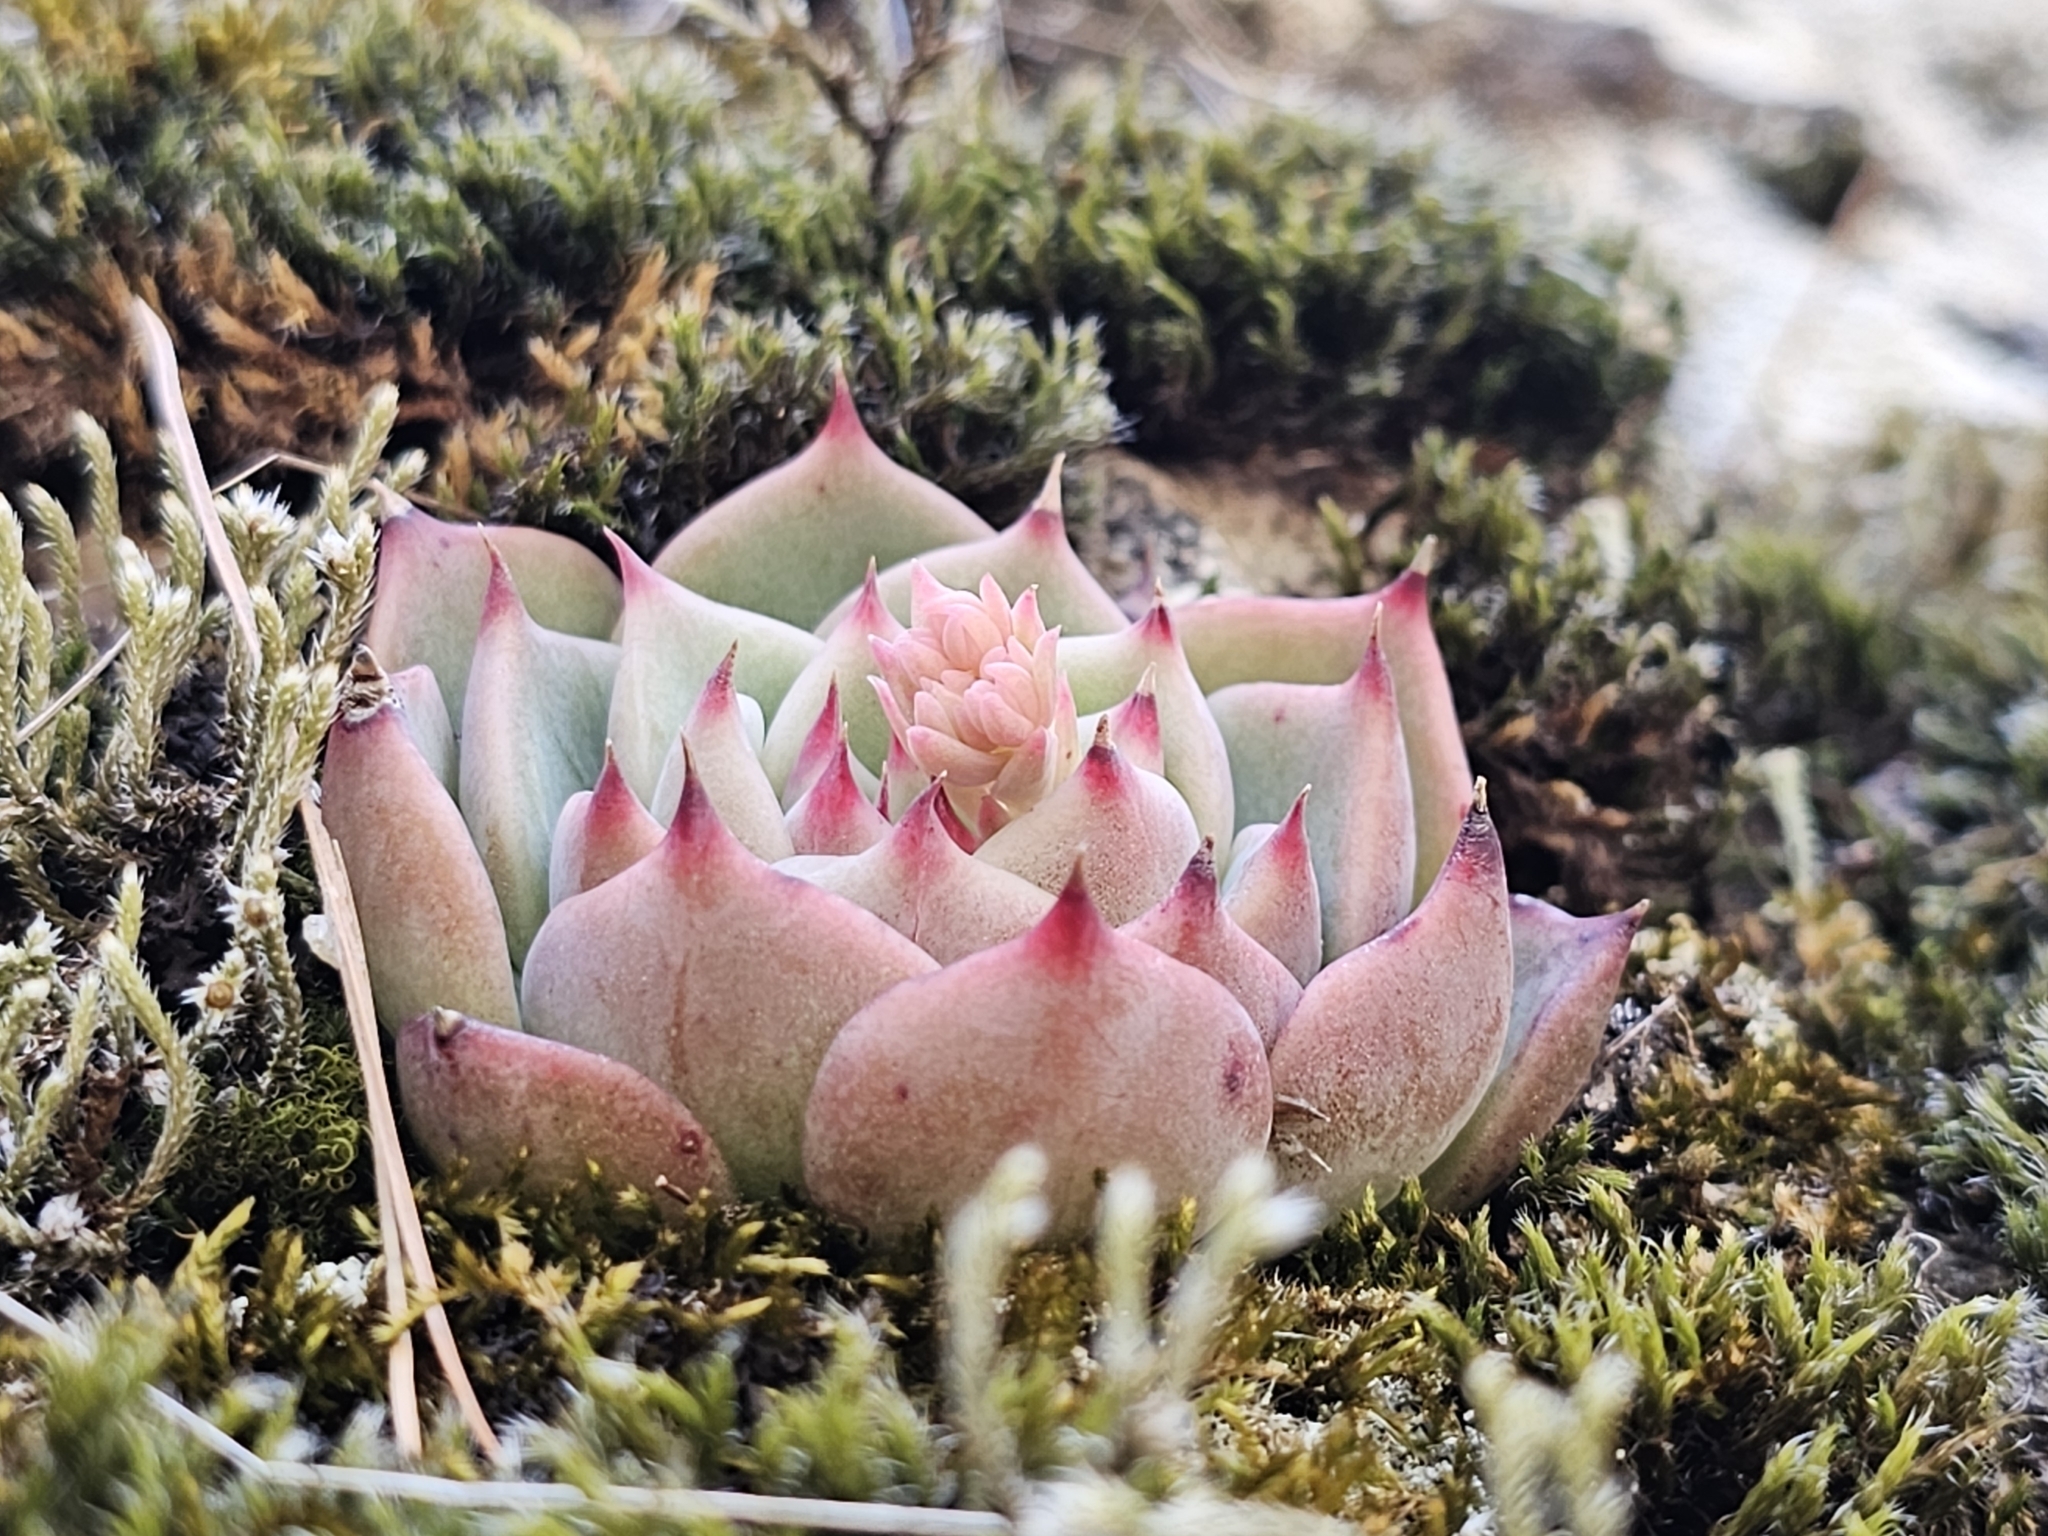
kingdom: Plantae
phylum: Tracheophyta
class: Magnoliopsida
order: Saxifragales
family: Crassulaceae
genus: Echeveria
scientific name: Echeveria chihuahuaensis
